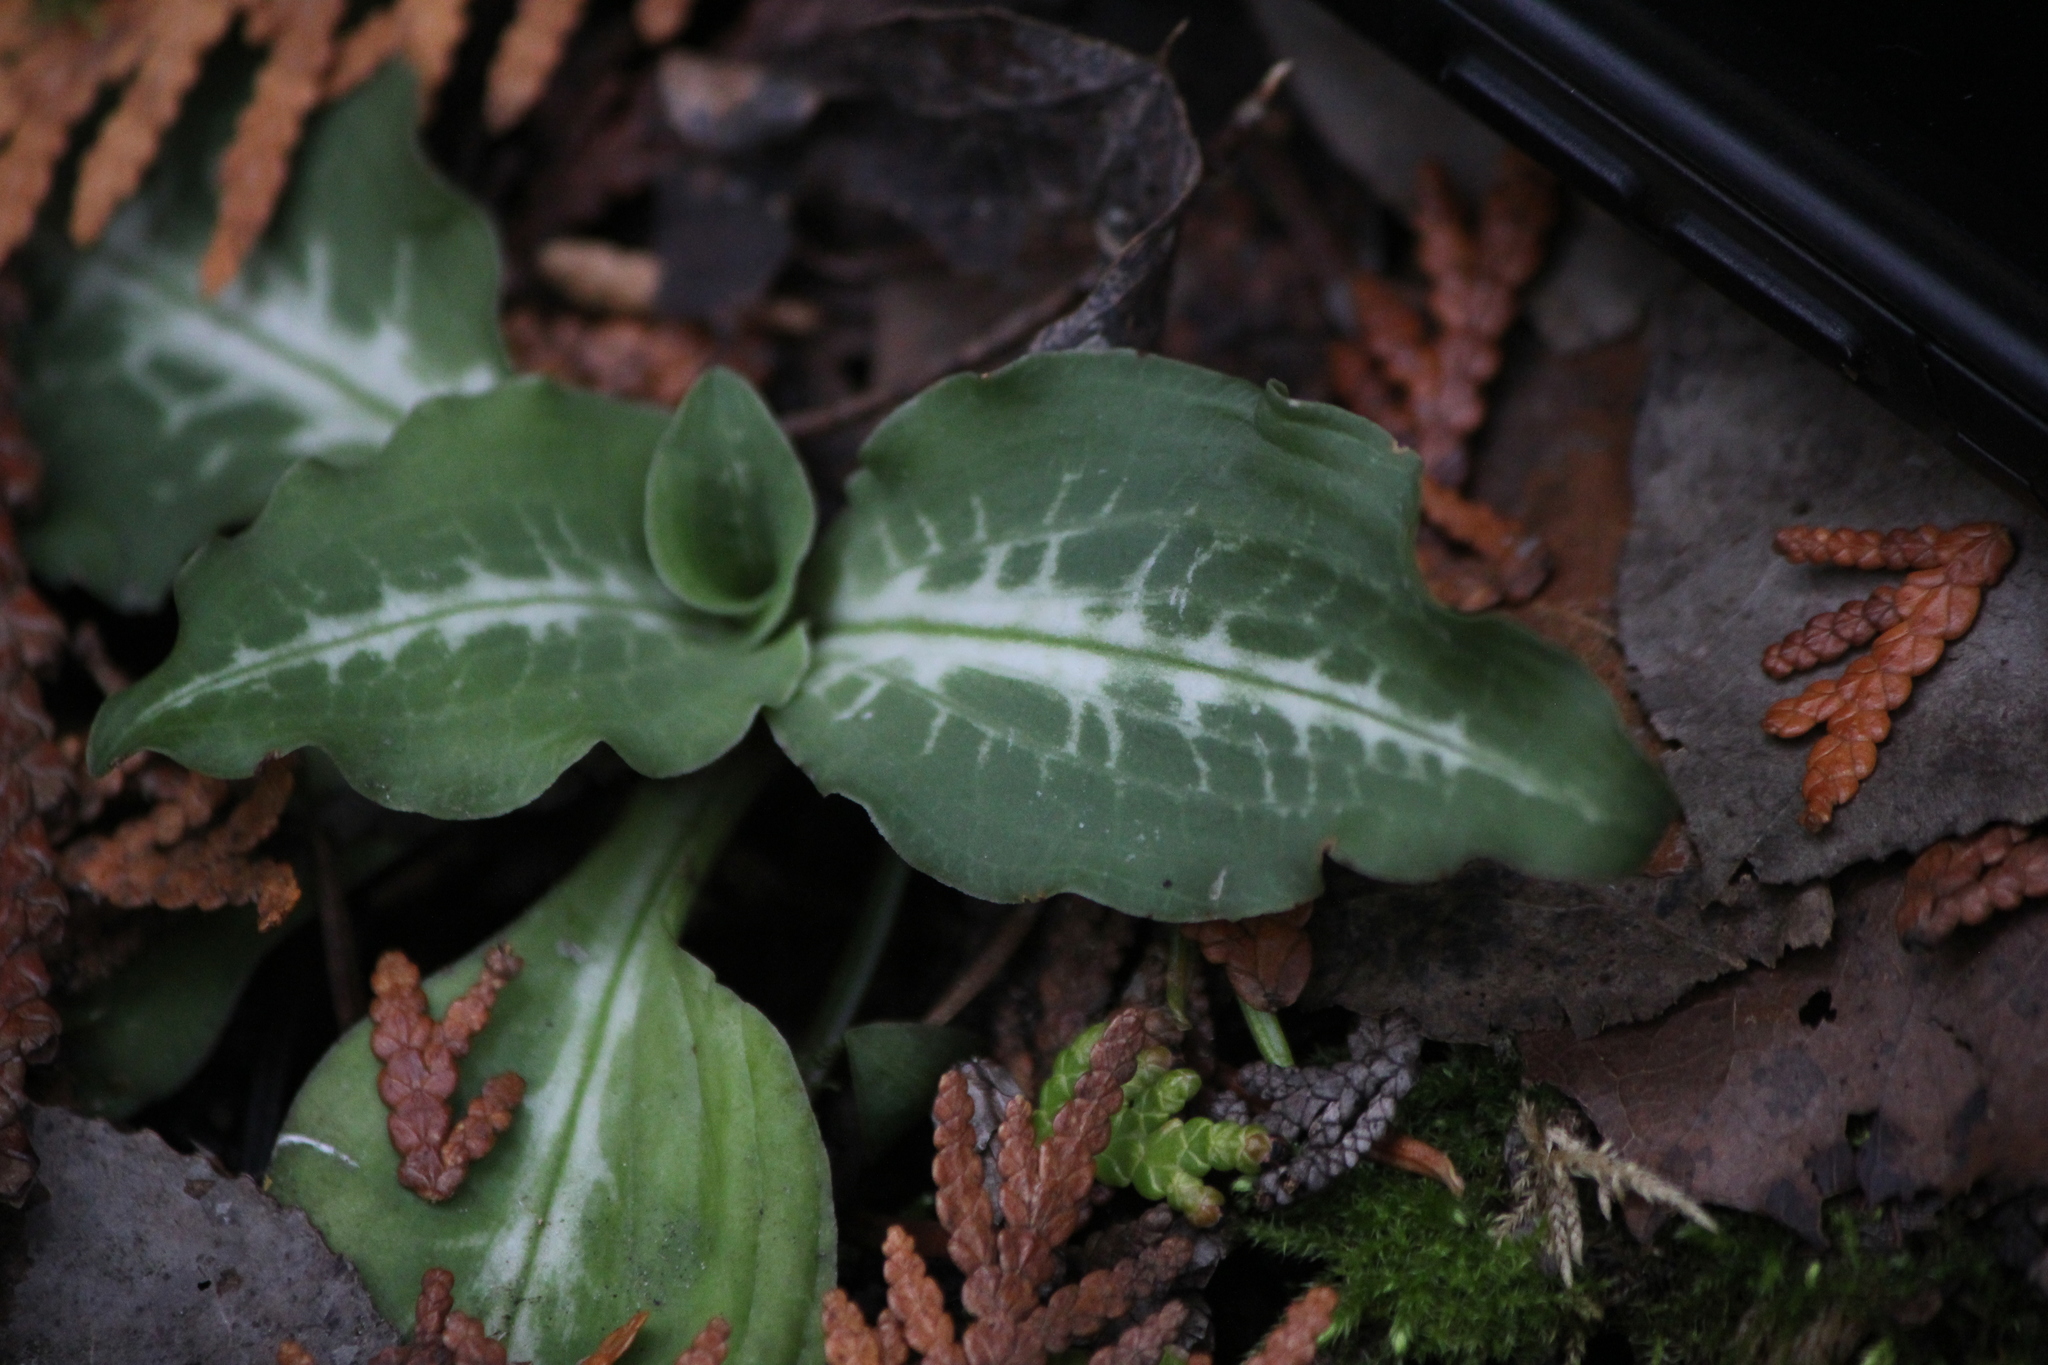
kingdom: Plantae
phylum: Tracheophyta
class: Liliopsida
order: Asparagales
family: Orchidaceae
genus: Goodyera
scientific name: Goodyera oblongifolia
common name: Giant rattlesnake-plantain
